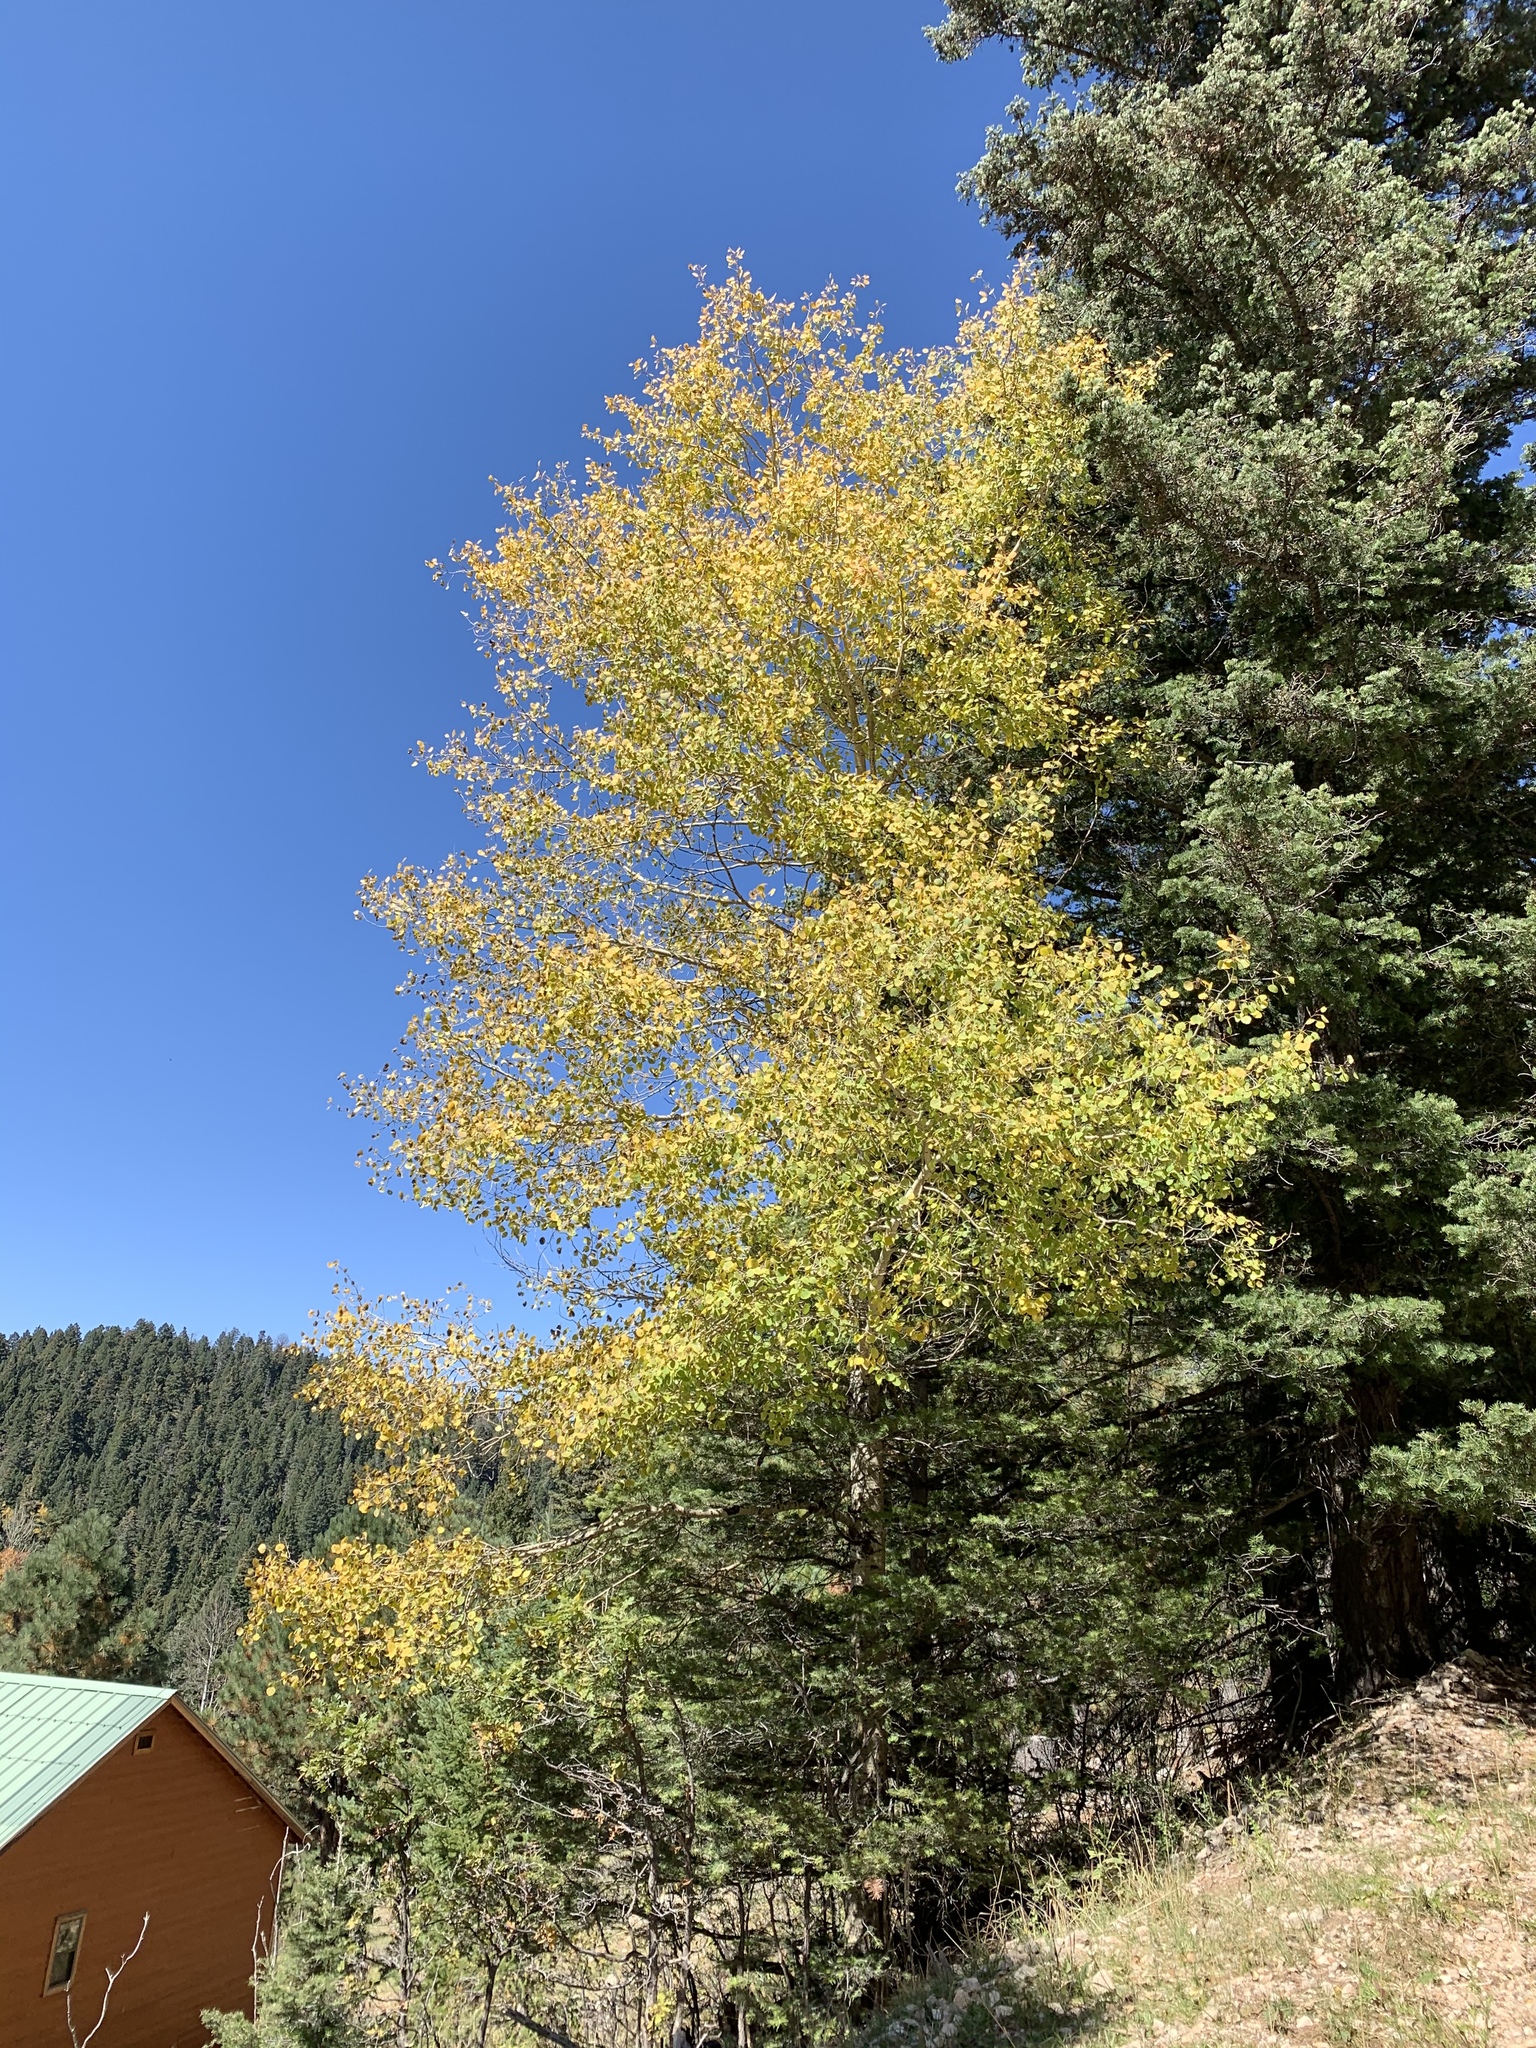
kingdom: Plantae
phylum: Tracheophyta
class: Magnoliopsida
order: Malpighiales
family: Salicaceae
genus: Populus
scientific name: Populus tremuloides
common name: Quaking aspen
